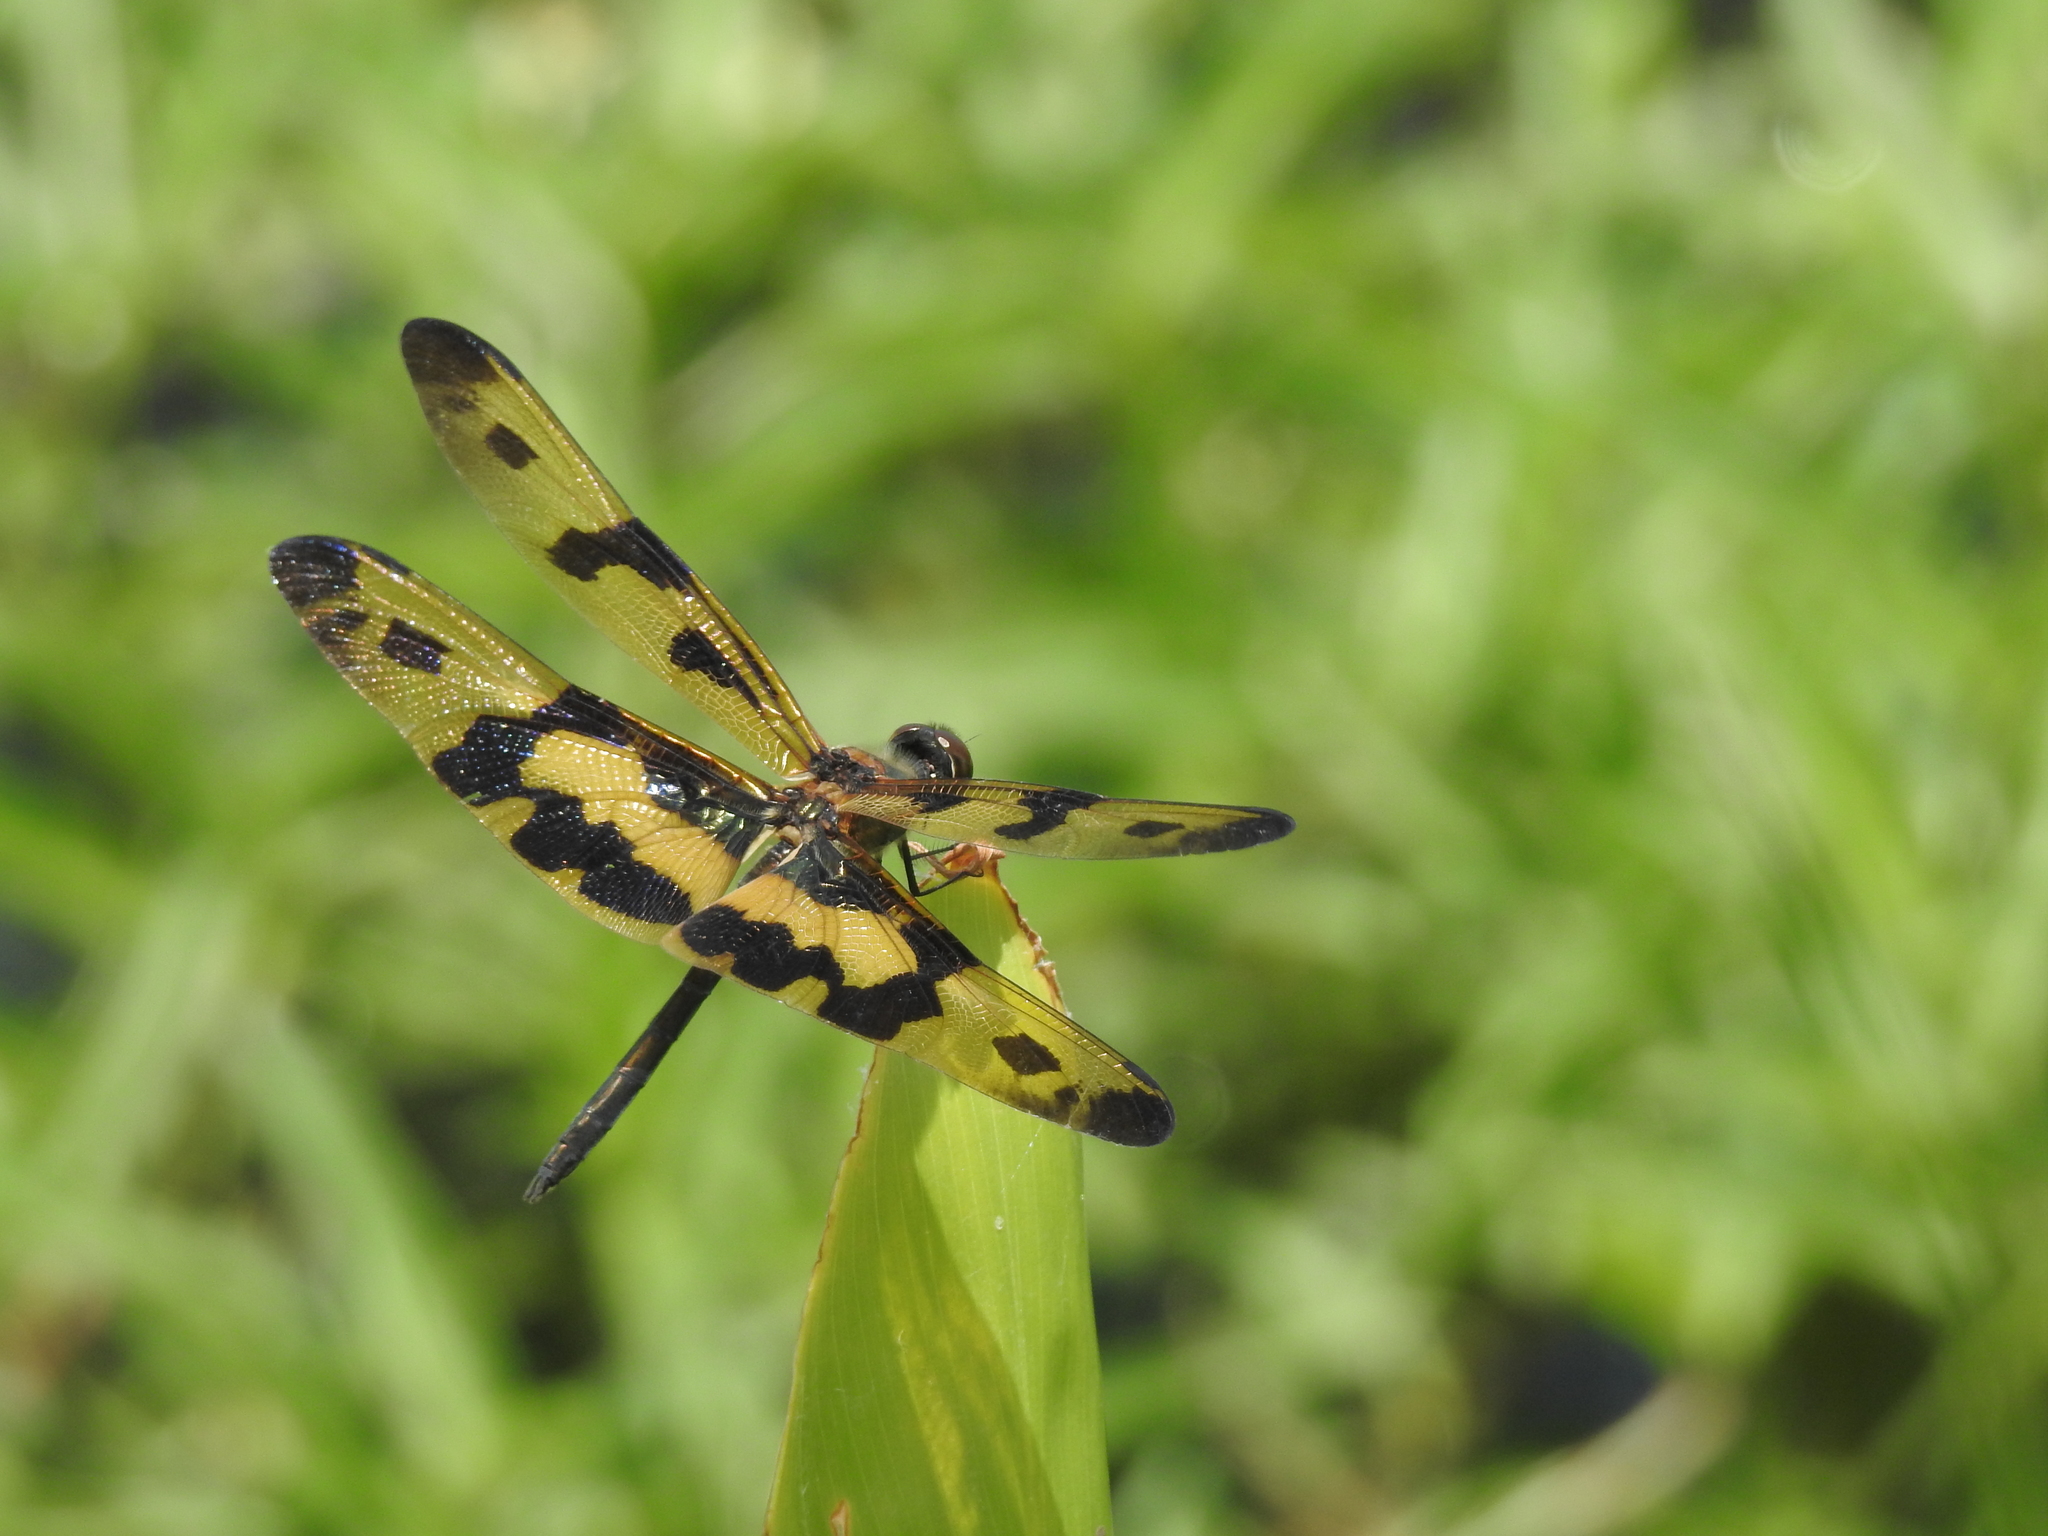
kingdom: Animalia
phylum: Arthropoda
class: Insecta
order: Odonata
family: Libellulidae
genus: Rhyothemis
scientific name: Rhyothemis variegata
